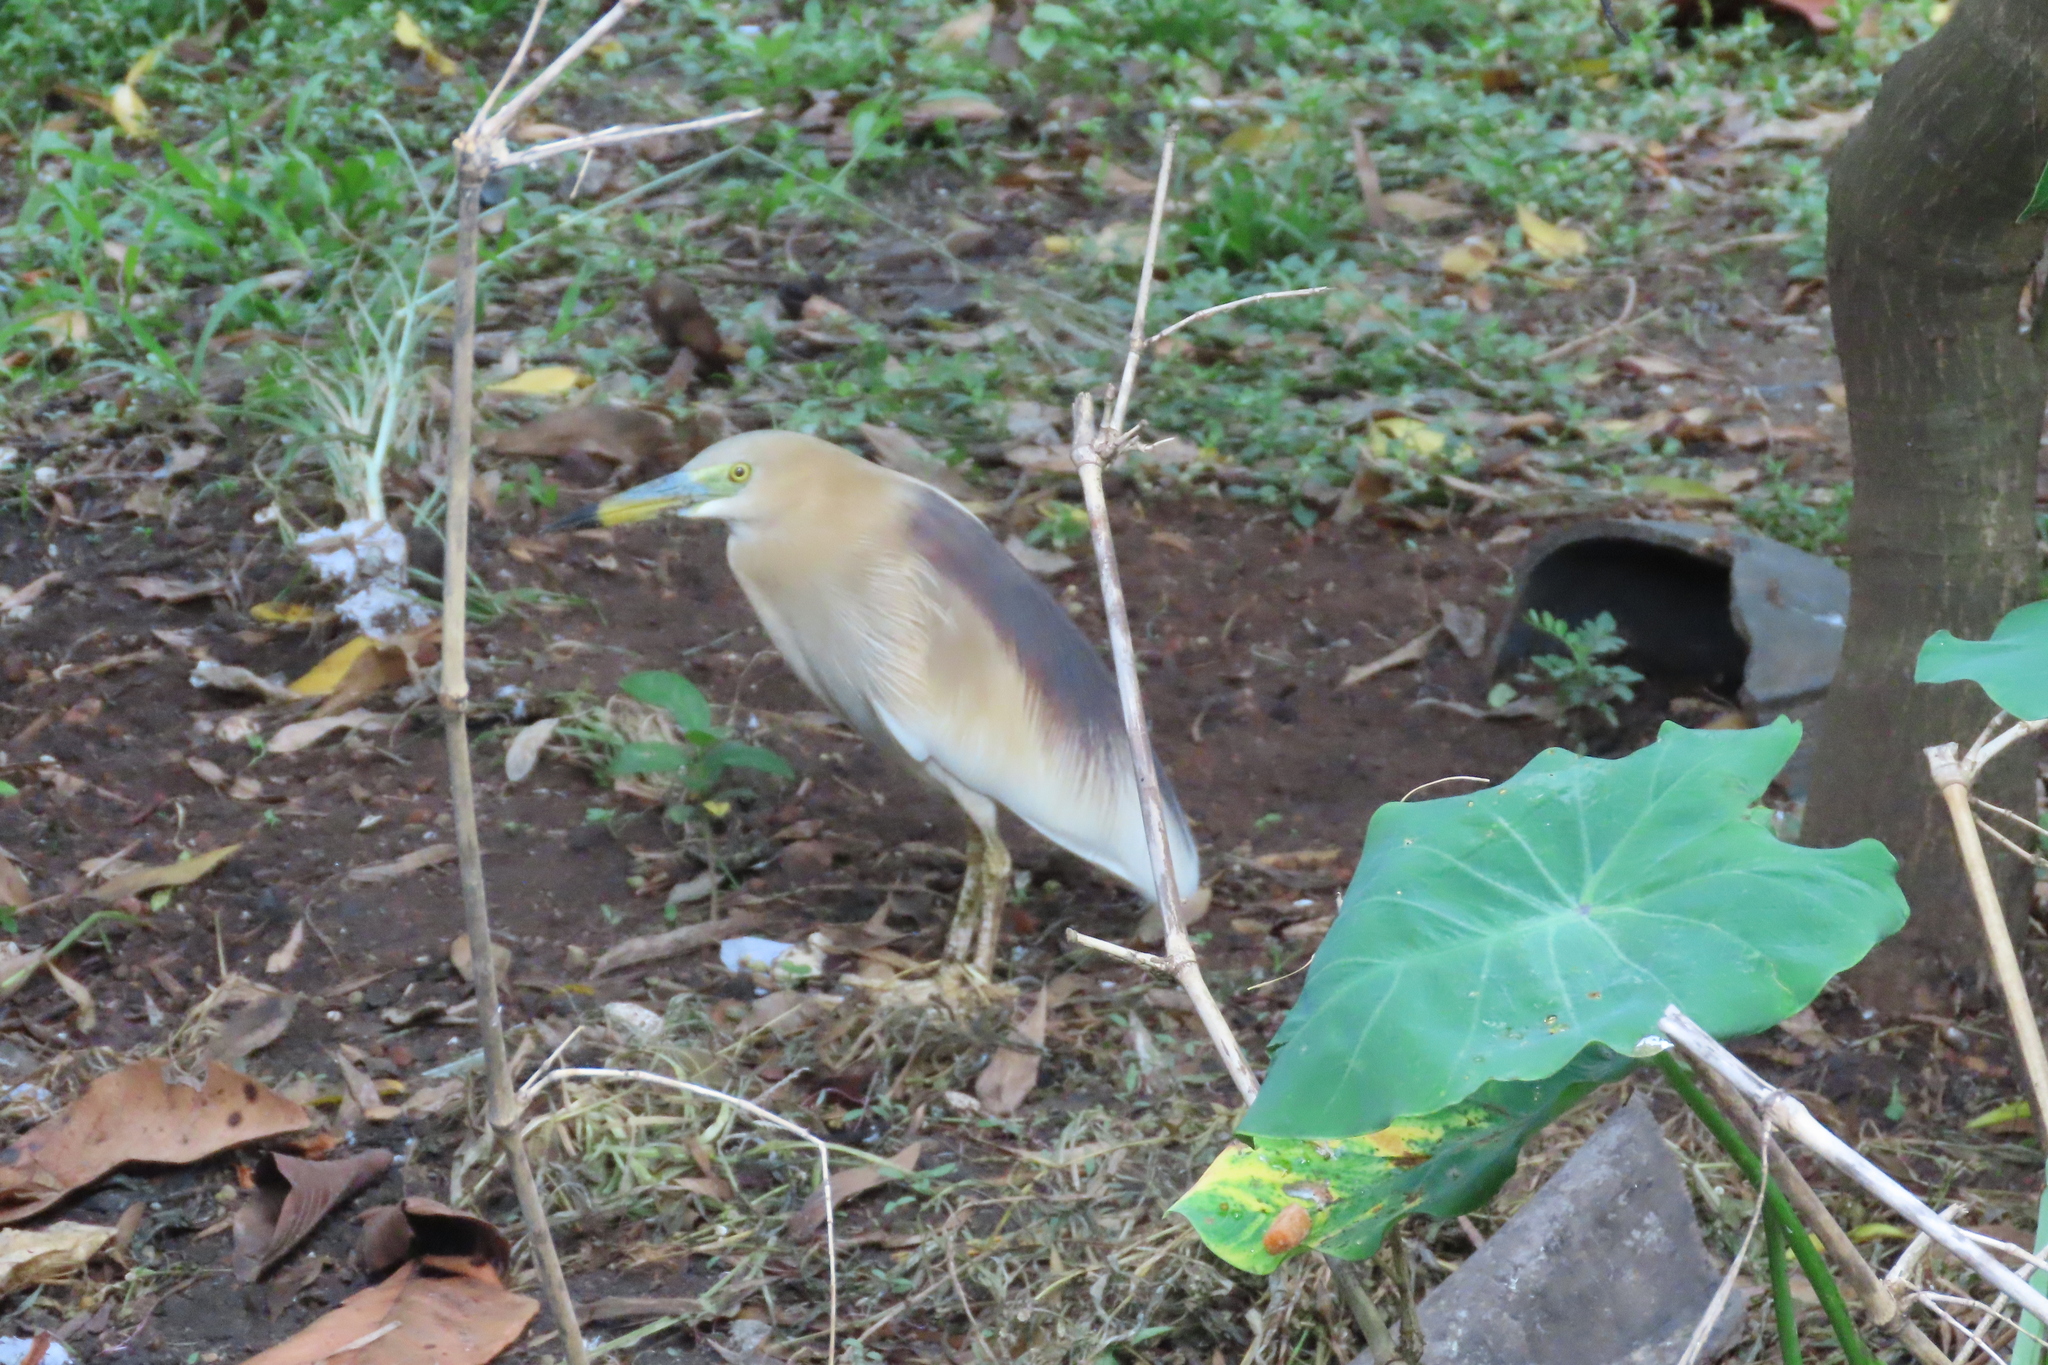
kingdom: Animalia
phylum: Chordata
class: Aves
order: Pelecaniformes
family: Ardeidae
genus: Ardeola
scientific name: Ardeola grayii
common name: Indian pond heron
